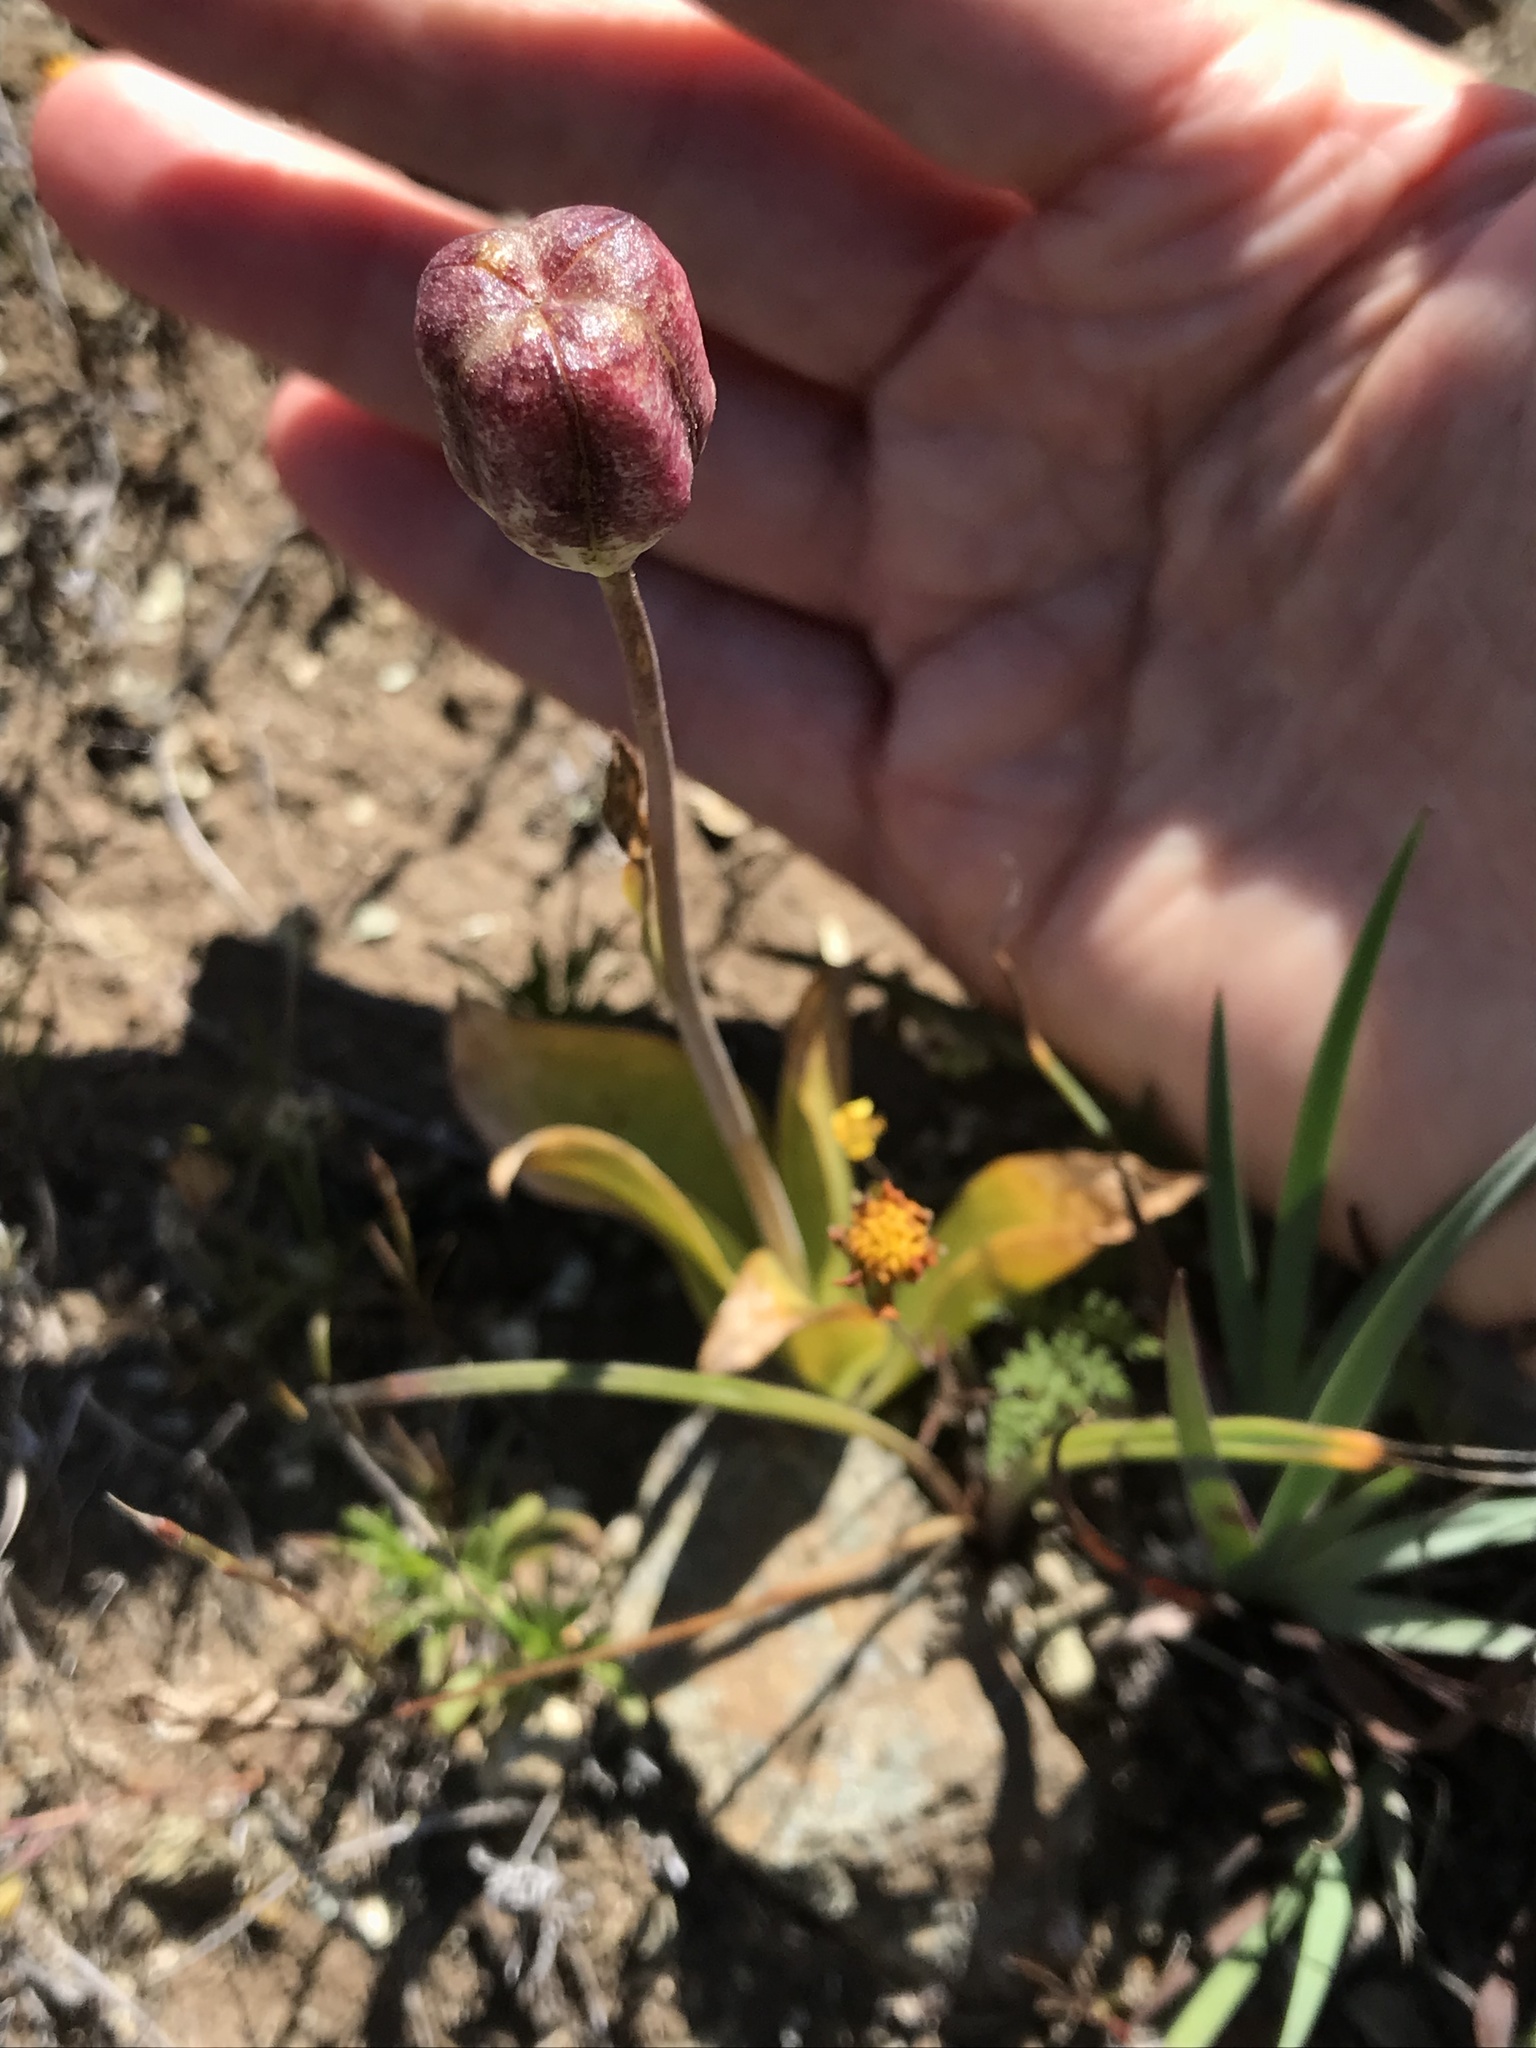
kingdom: Plantae
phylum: Tracheophyta
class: Liliopsida
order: Liliales
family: Liliaceae
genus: Fritillaria
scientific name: Fritillaria liliacea
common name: Fragrant fritillary
